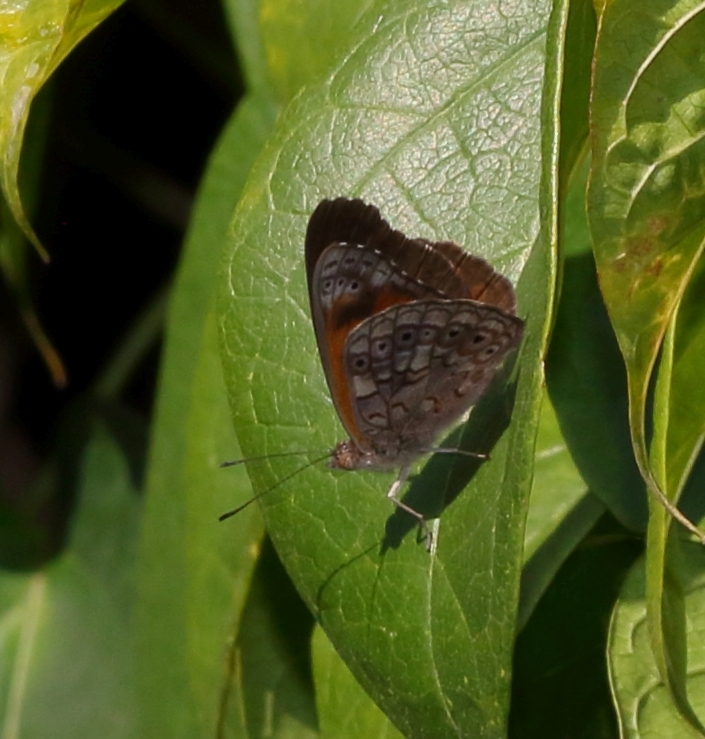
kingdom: Animalia
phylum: Arthropoda
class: Insecta
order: Lepidoptera
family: Nymphalidae
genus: Asterope
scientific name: Asterope boisduvali
